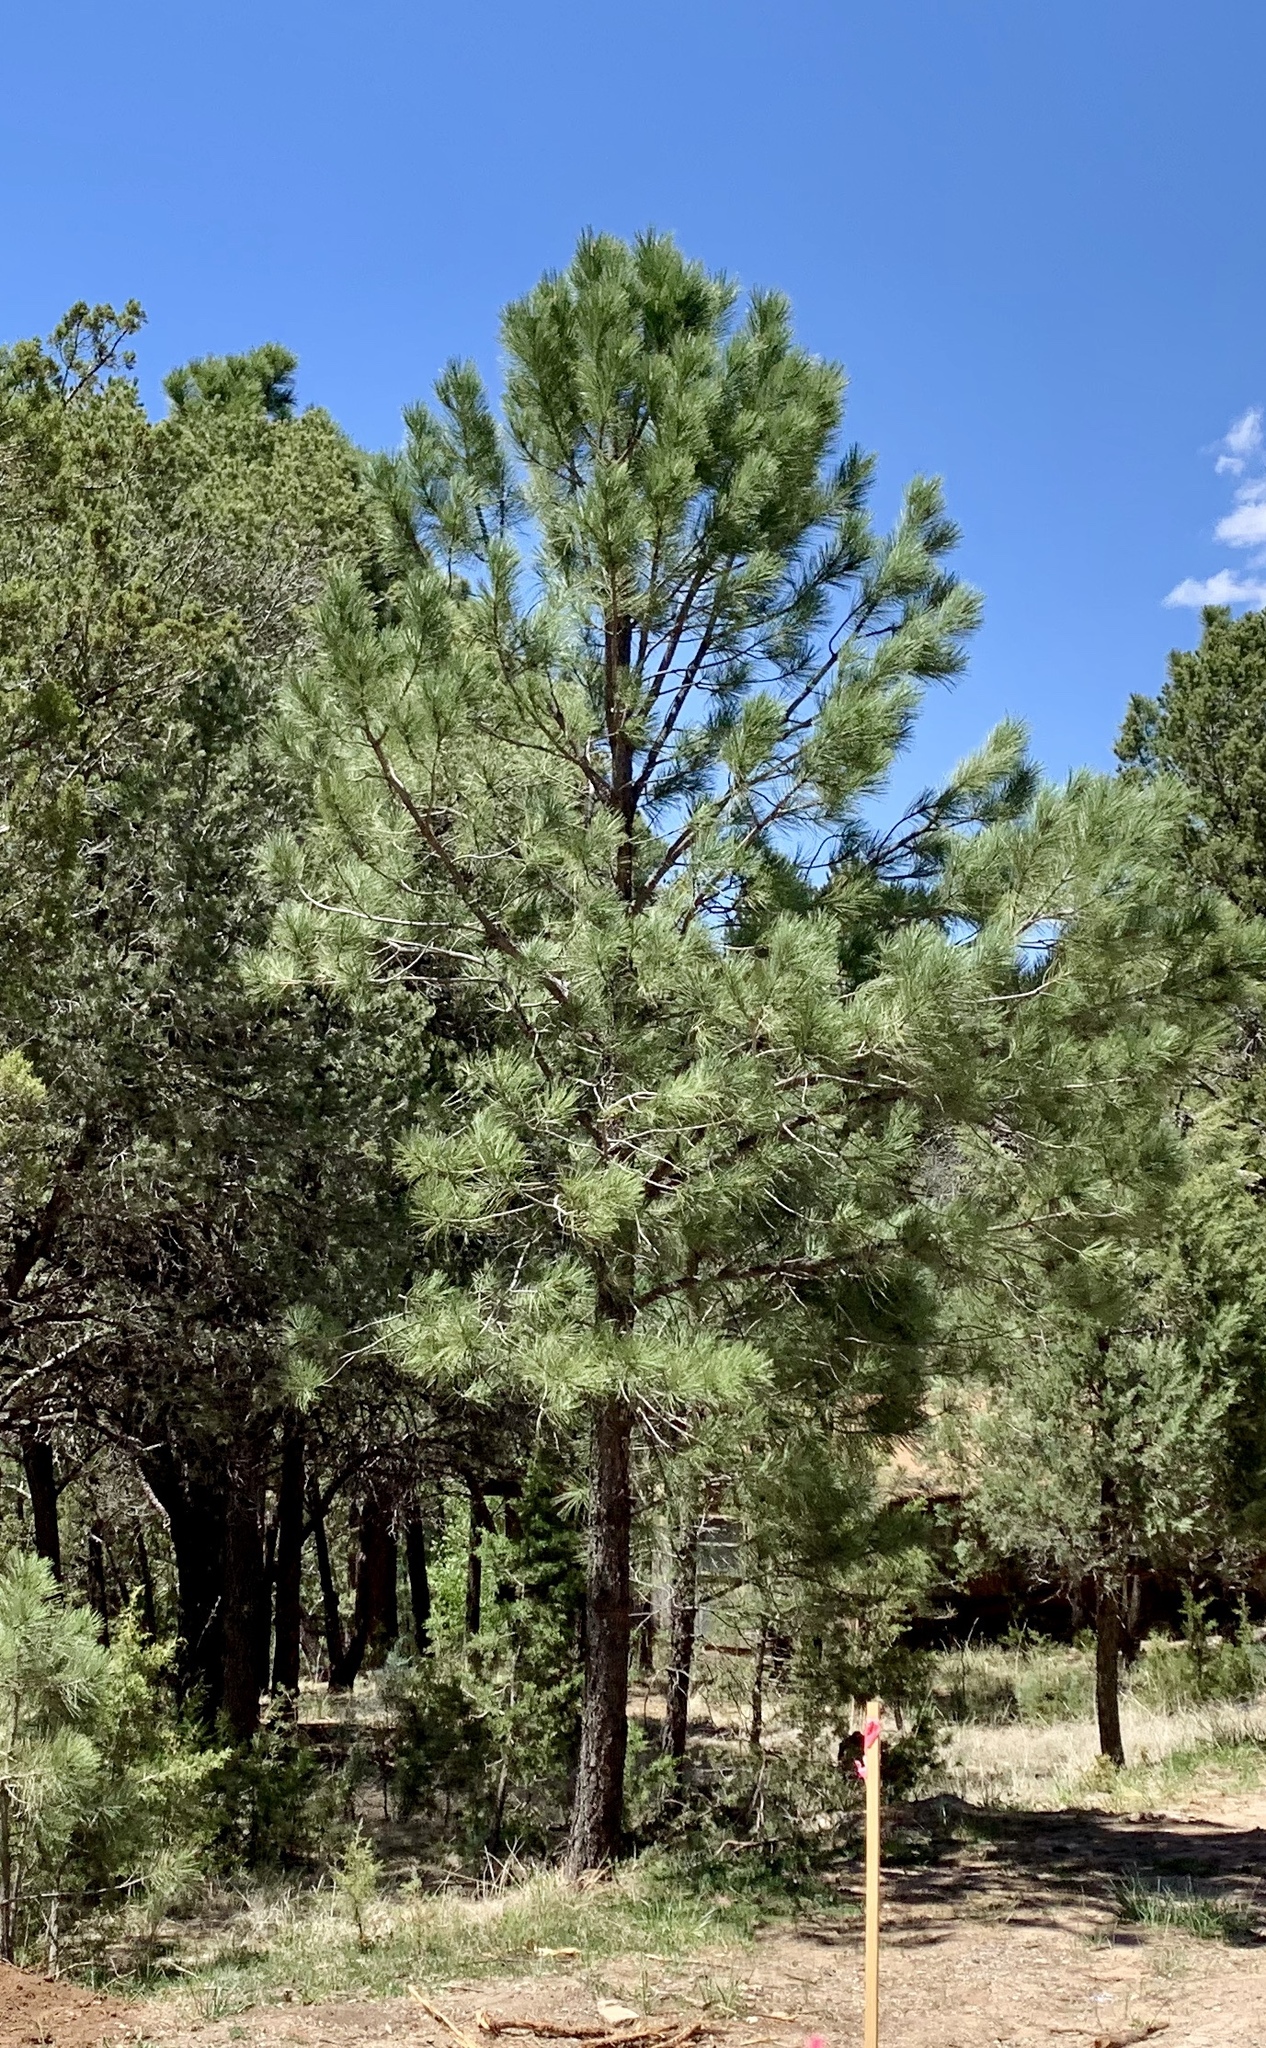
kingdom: Plantae
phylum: Tracheophyta
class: Pinopsida
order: Pinales
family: Pinaceae
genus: Pinus
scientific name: Pinus ponderosa
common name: Western yellow-pine
